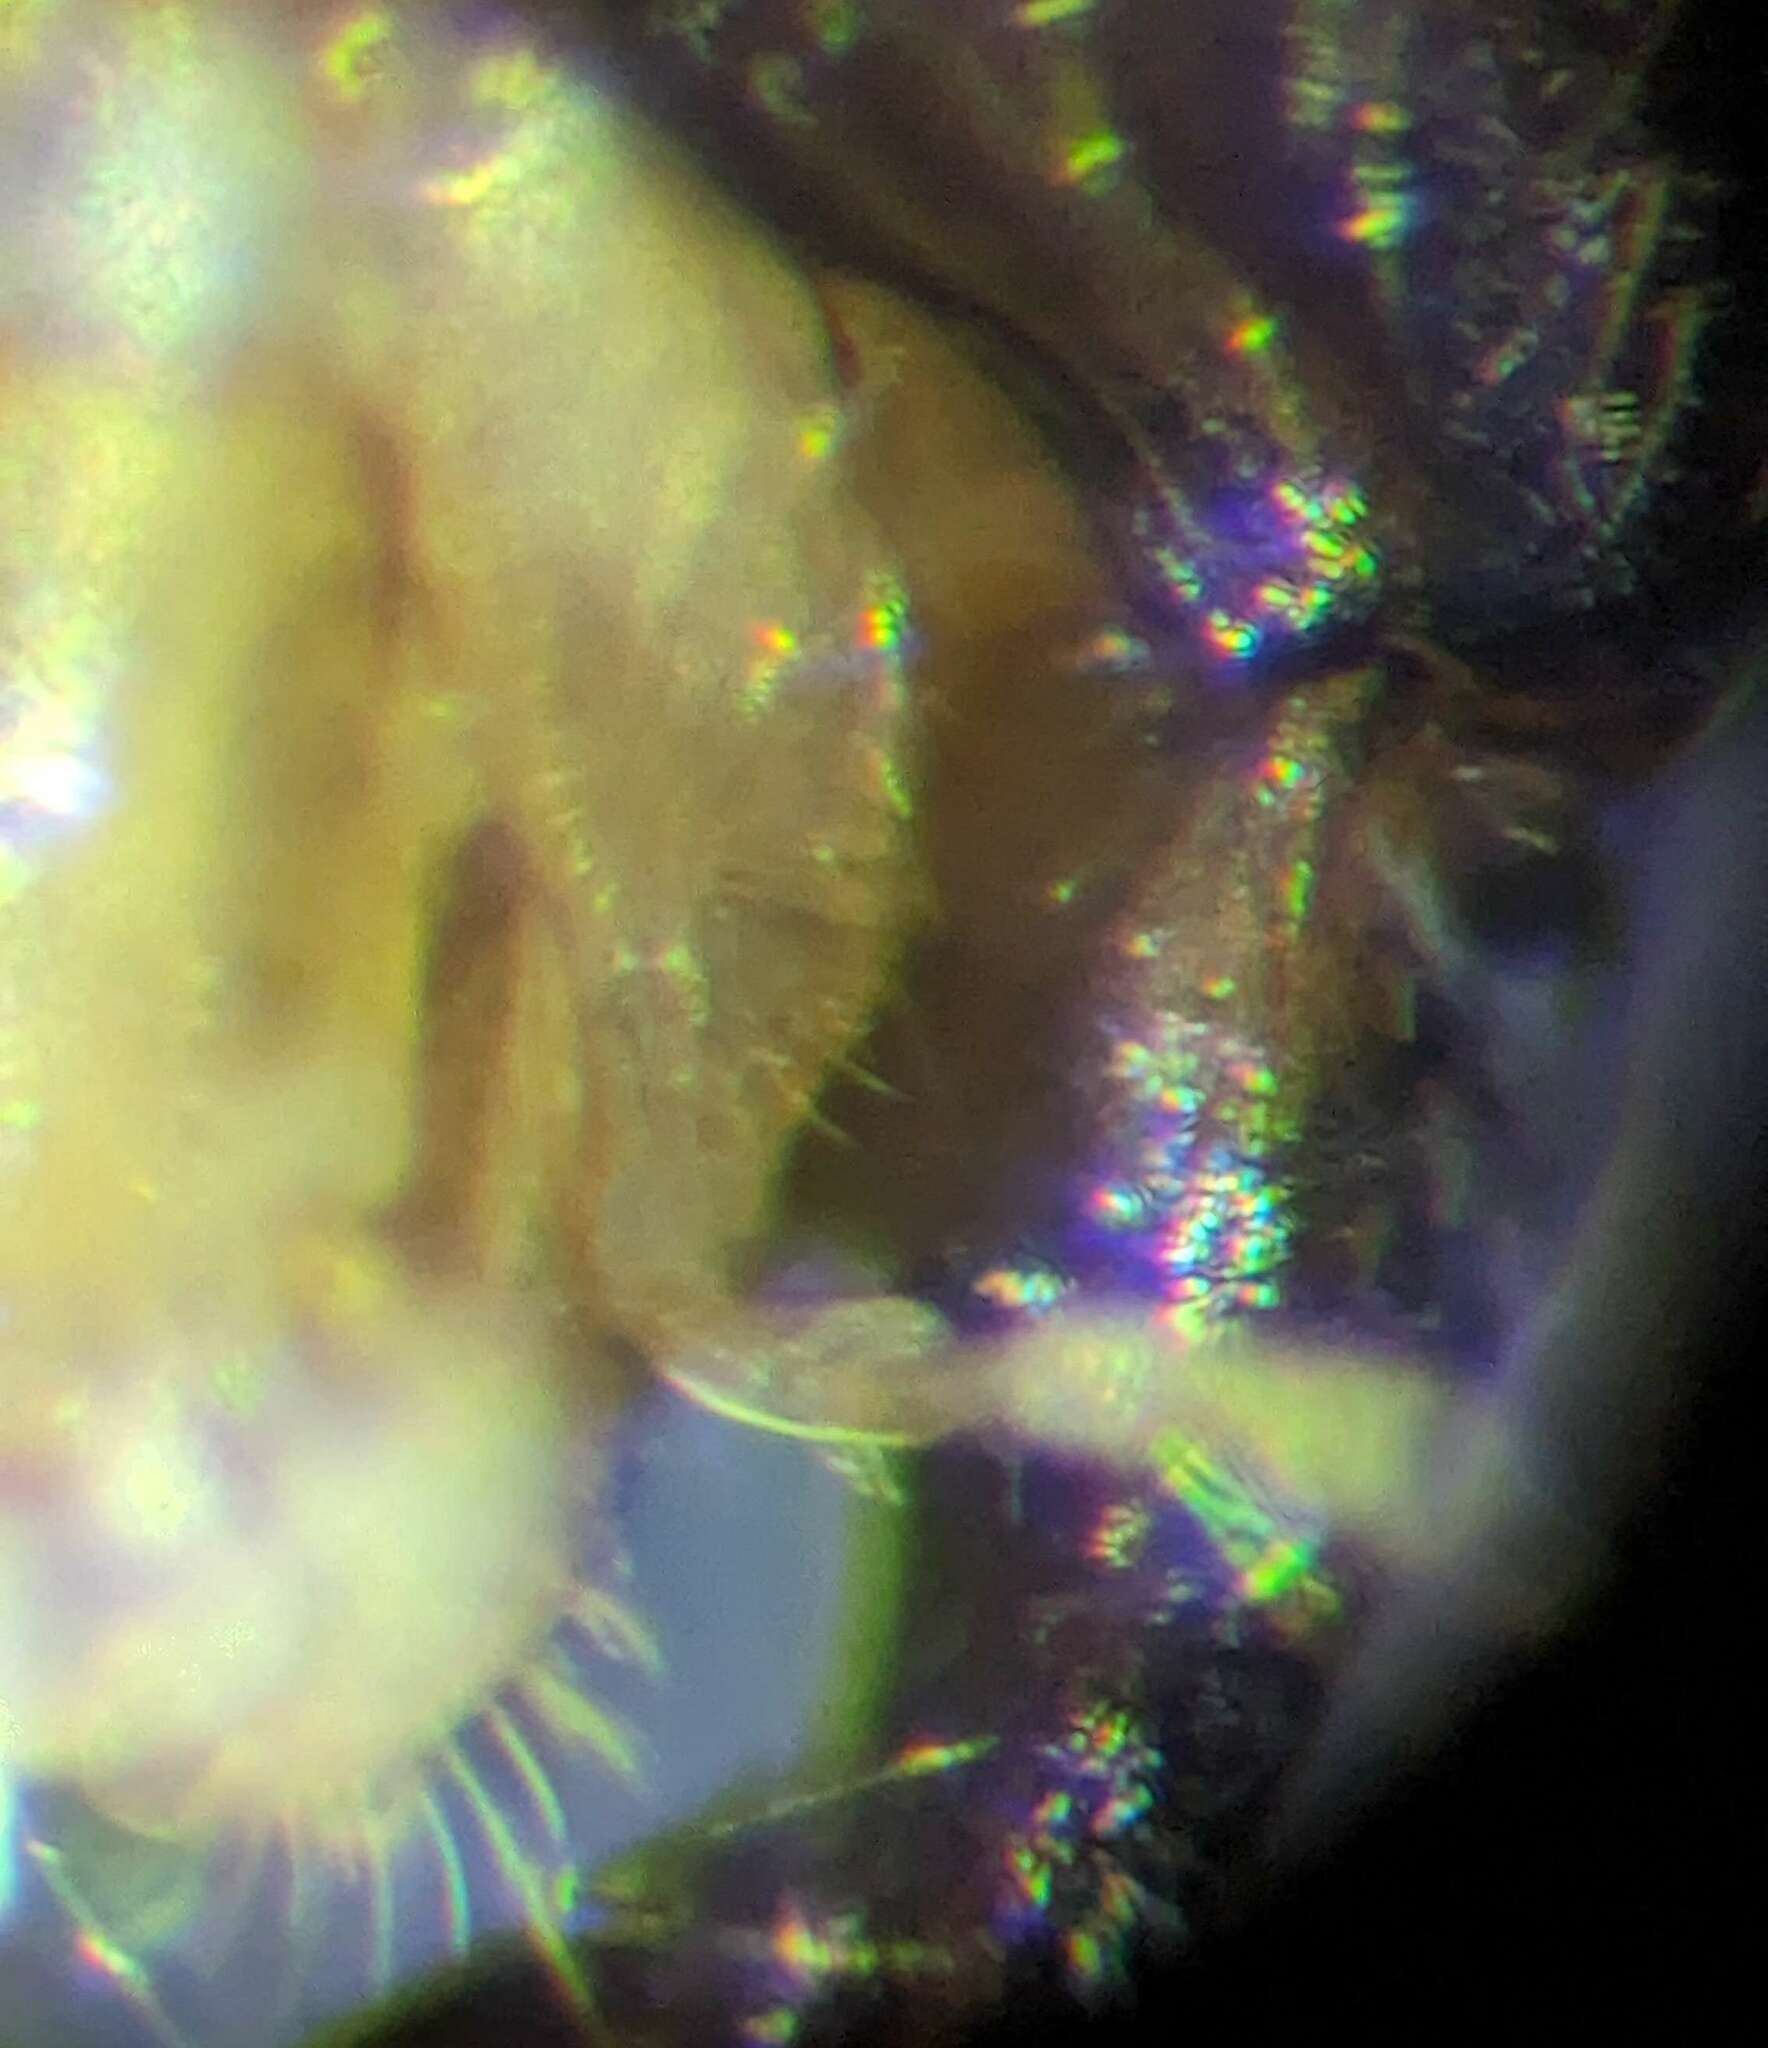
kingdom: Animalia
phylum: Arthropoda
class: Insecta
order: Hymenoptera
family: Formicidae
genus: Acanthomyops
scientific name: Acanthomyops
